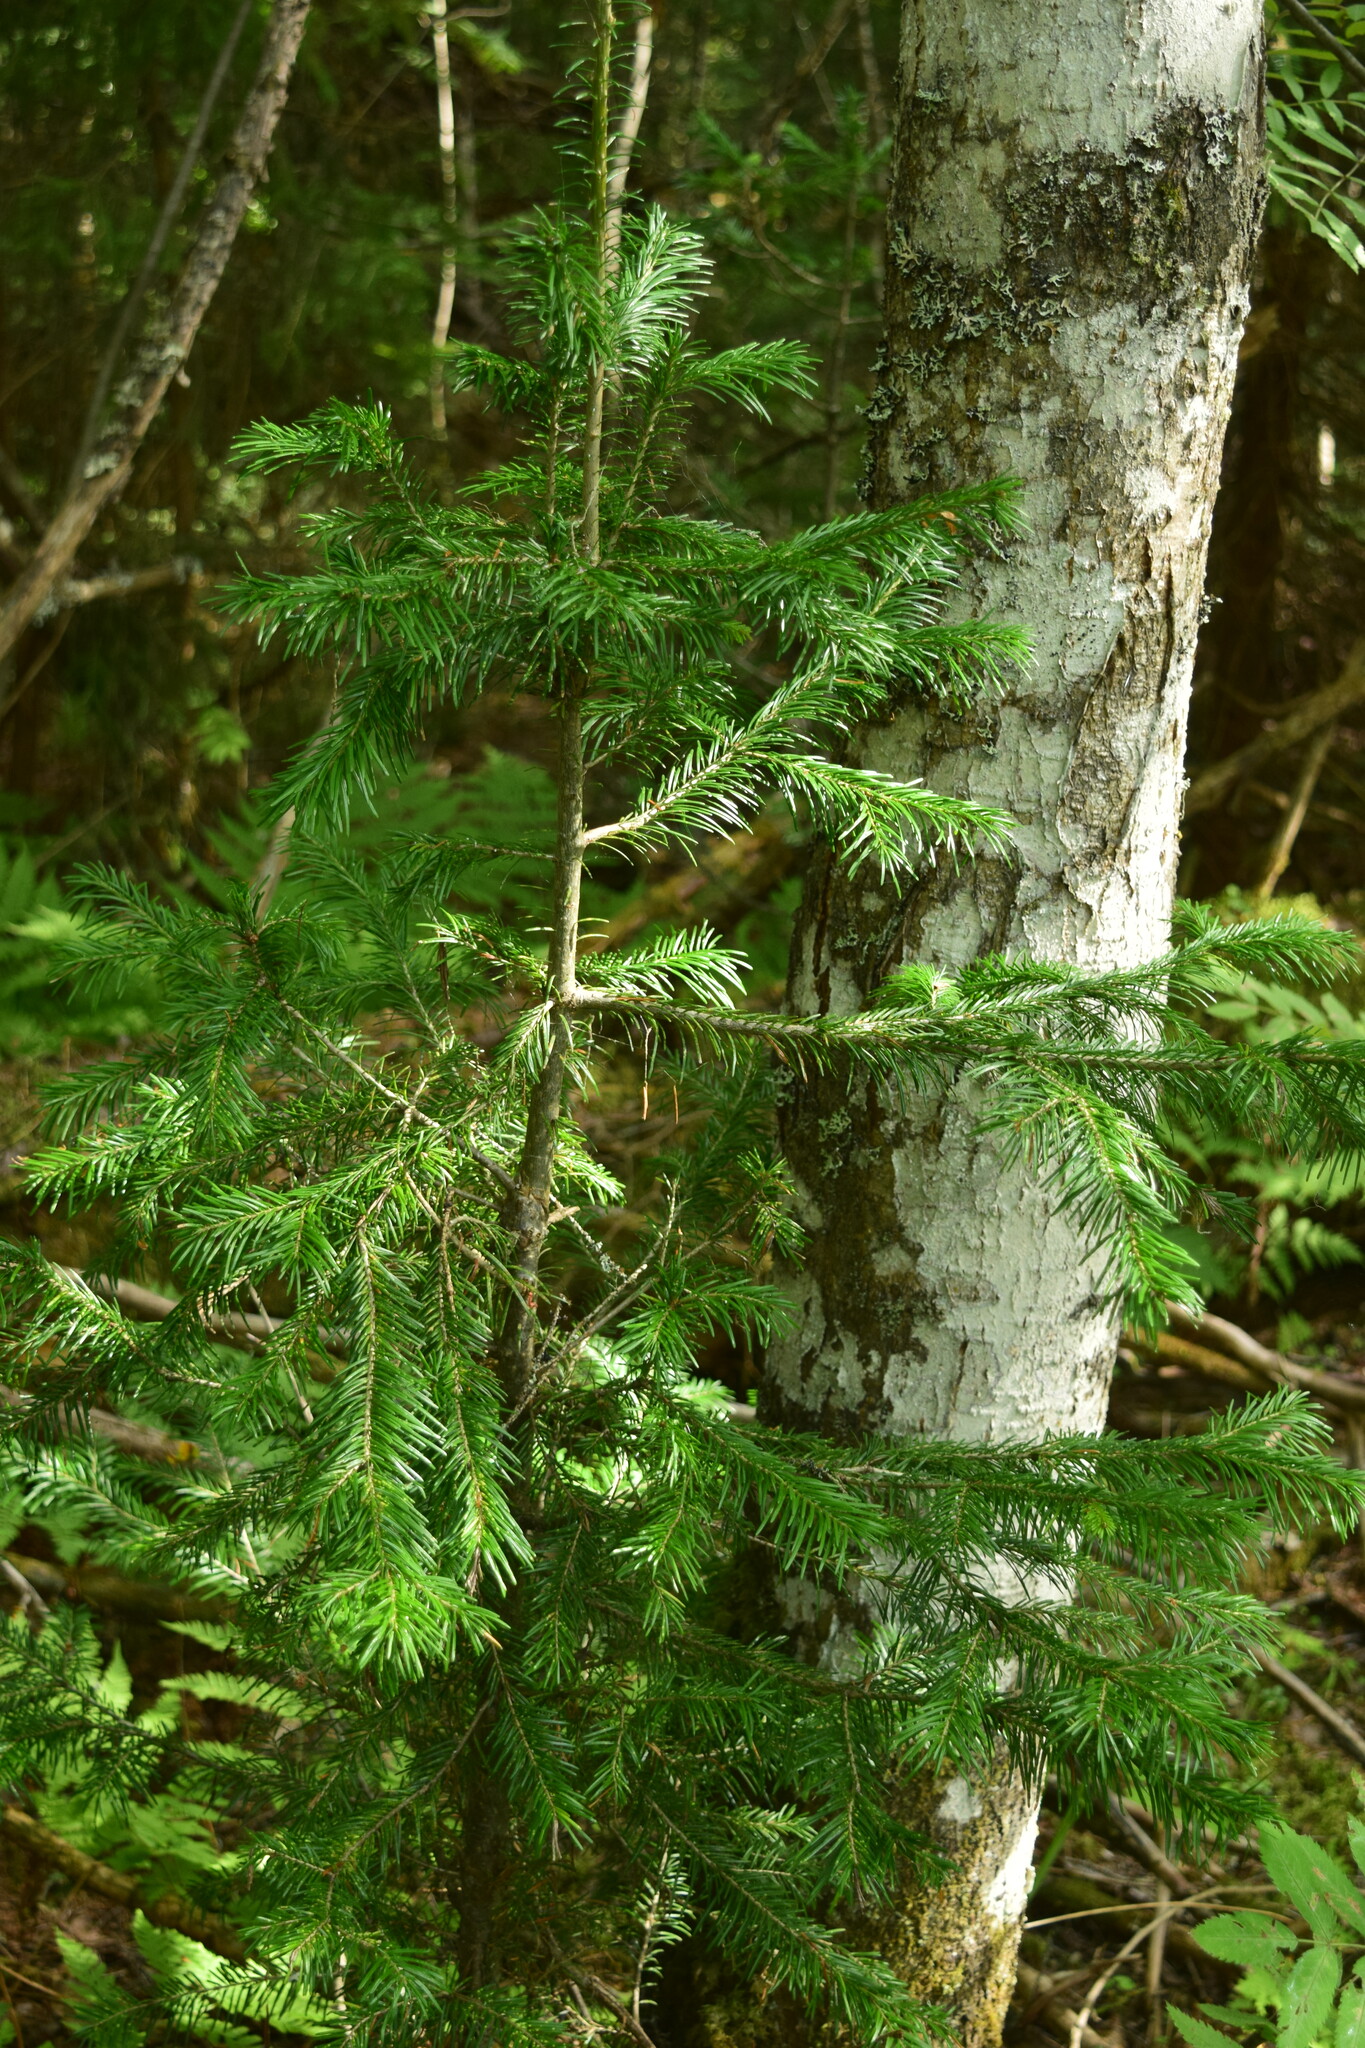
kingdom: Plantae
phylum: Tracheophyta
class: Pinopsida
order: Pinales
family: Pinaceae
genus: Abies
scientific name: Abies sibirica
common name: Siberian fir
